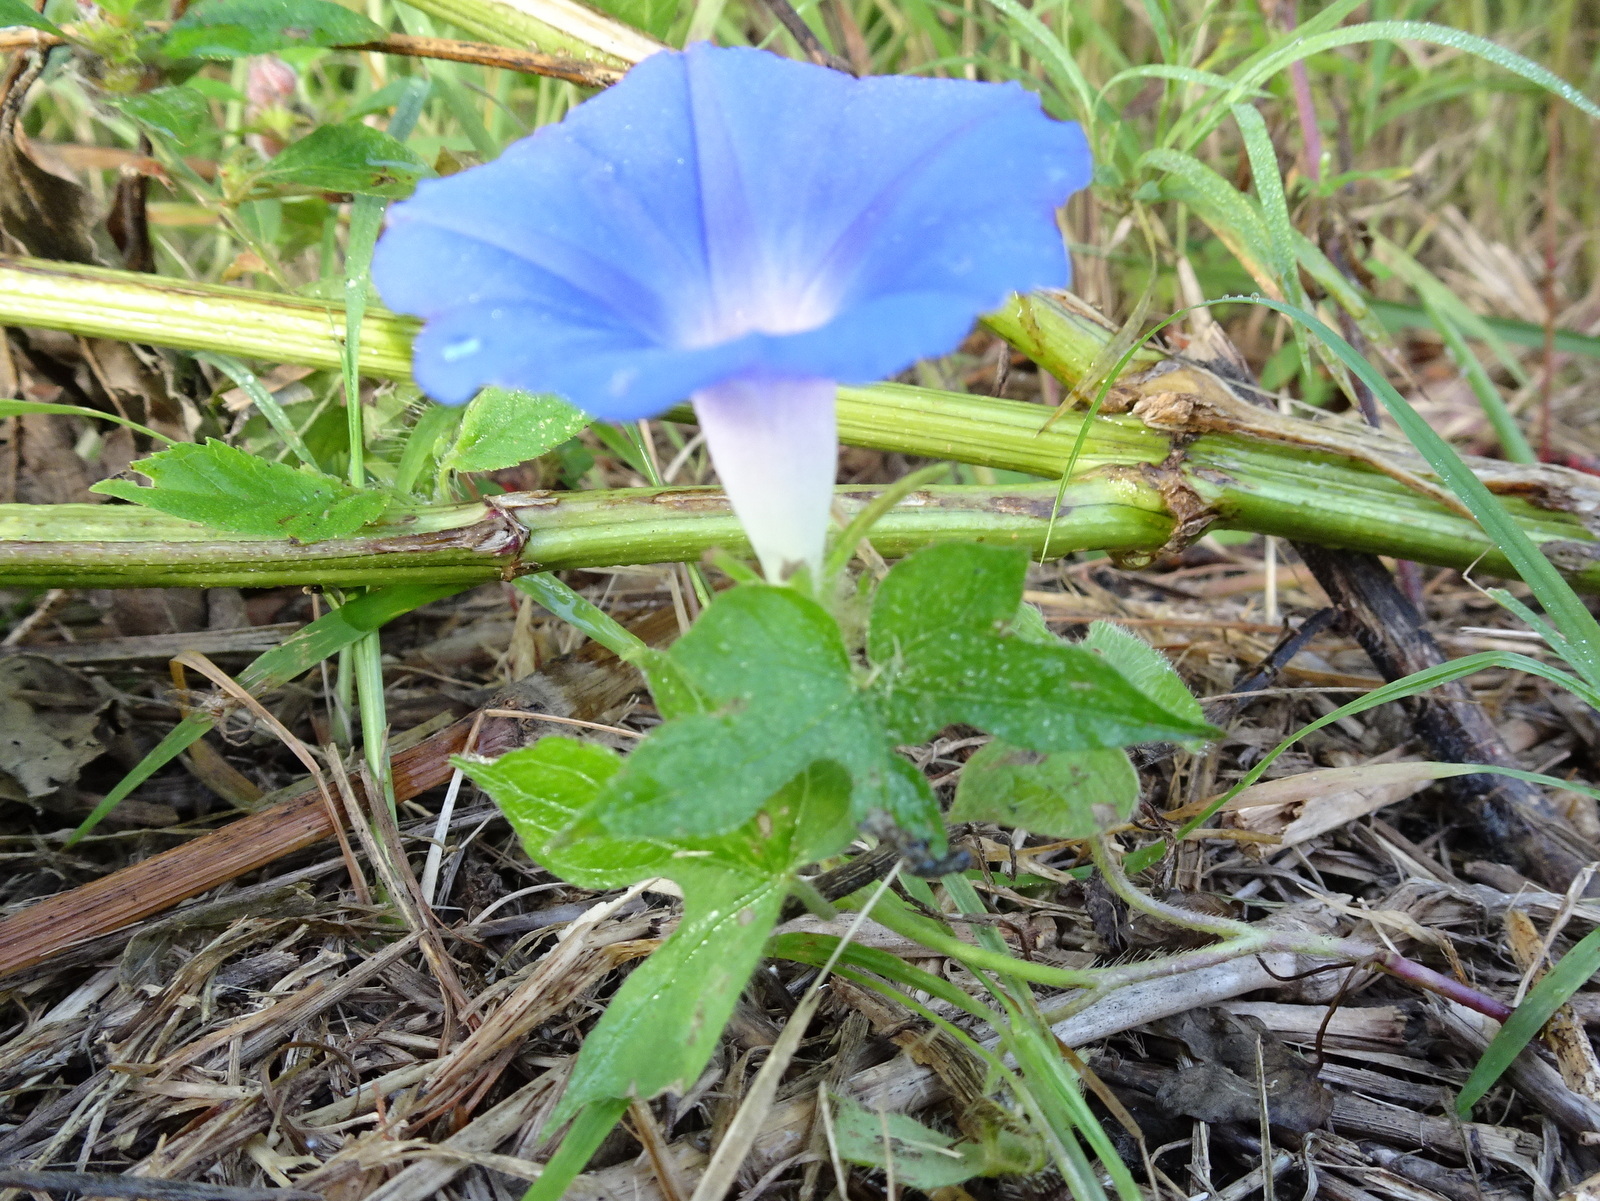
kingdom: Plantae
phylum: Tracheophyta
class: Magnoliopsida
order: Solanales
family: Convolvulaceae
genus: Ipomoea
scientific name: Ipomoea hederacea
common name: Ivy-leaved morning-glory
